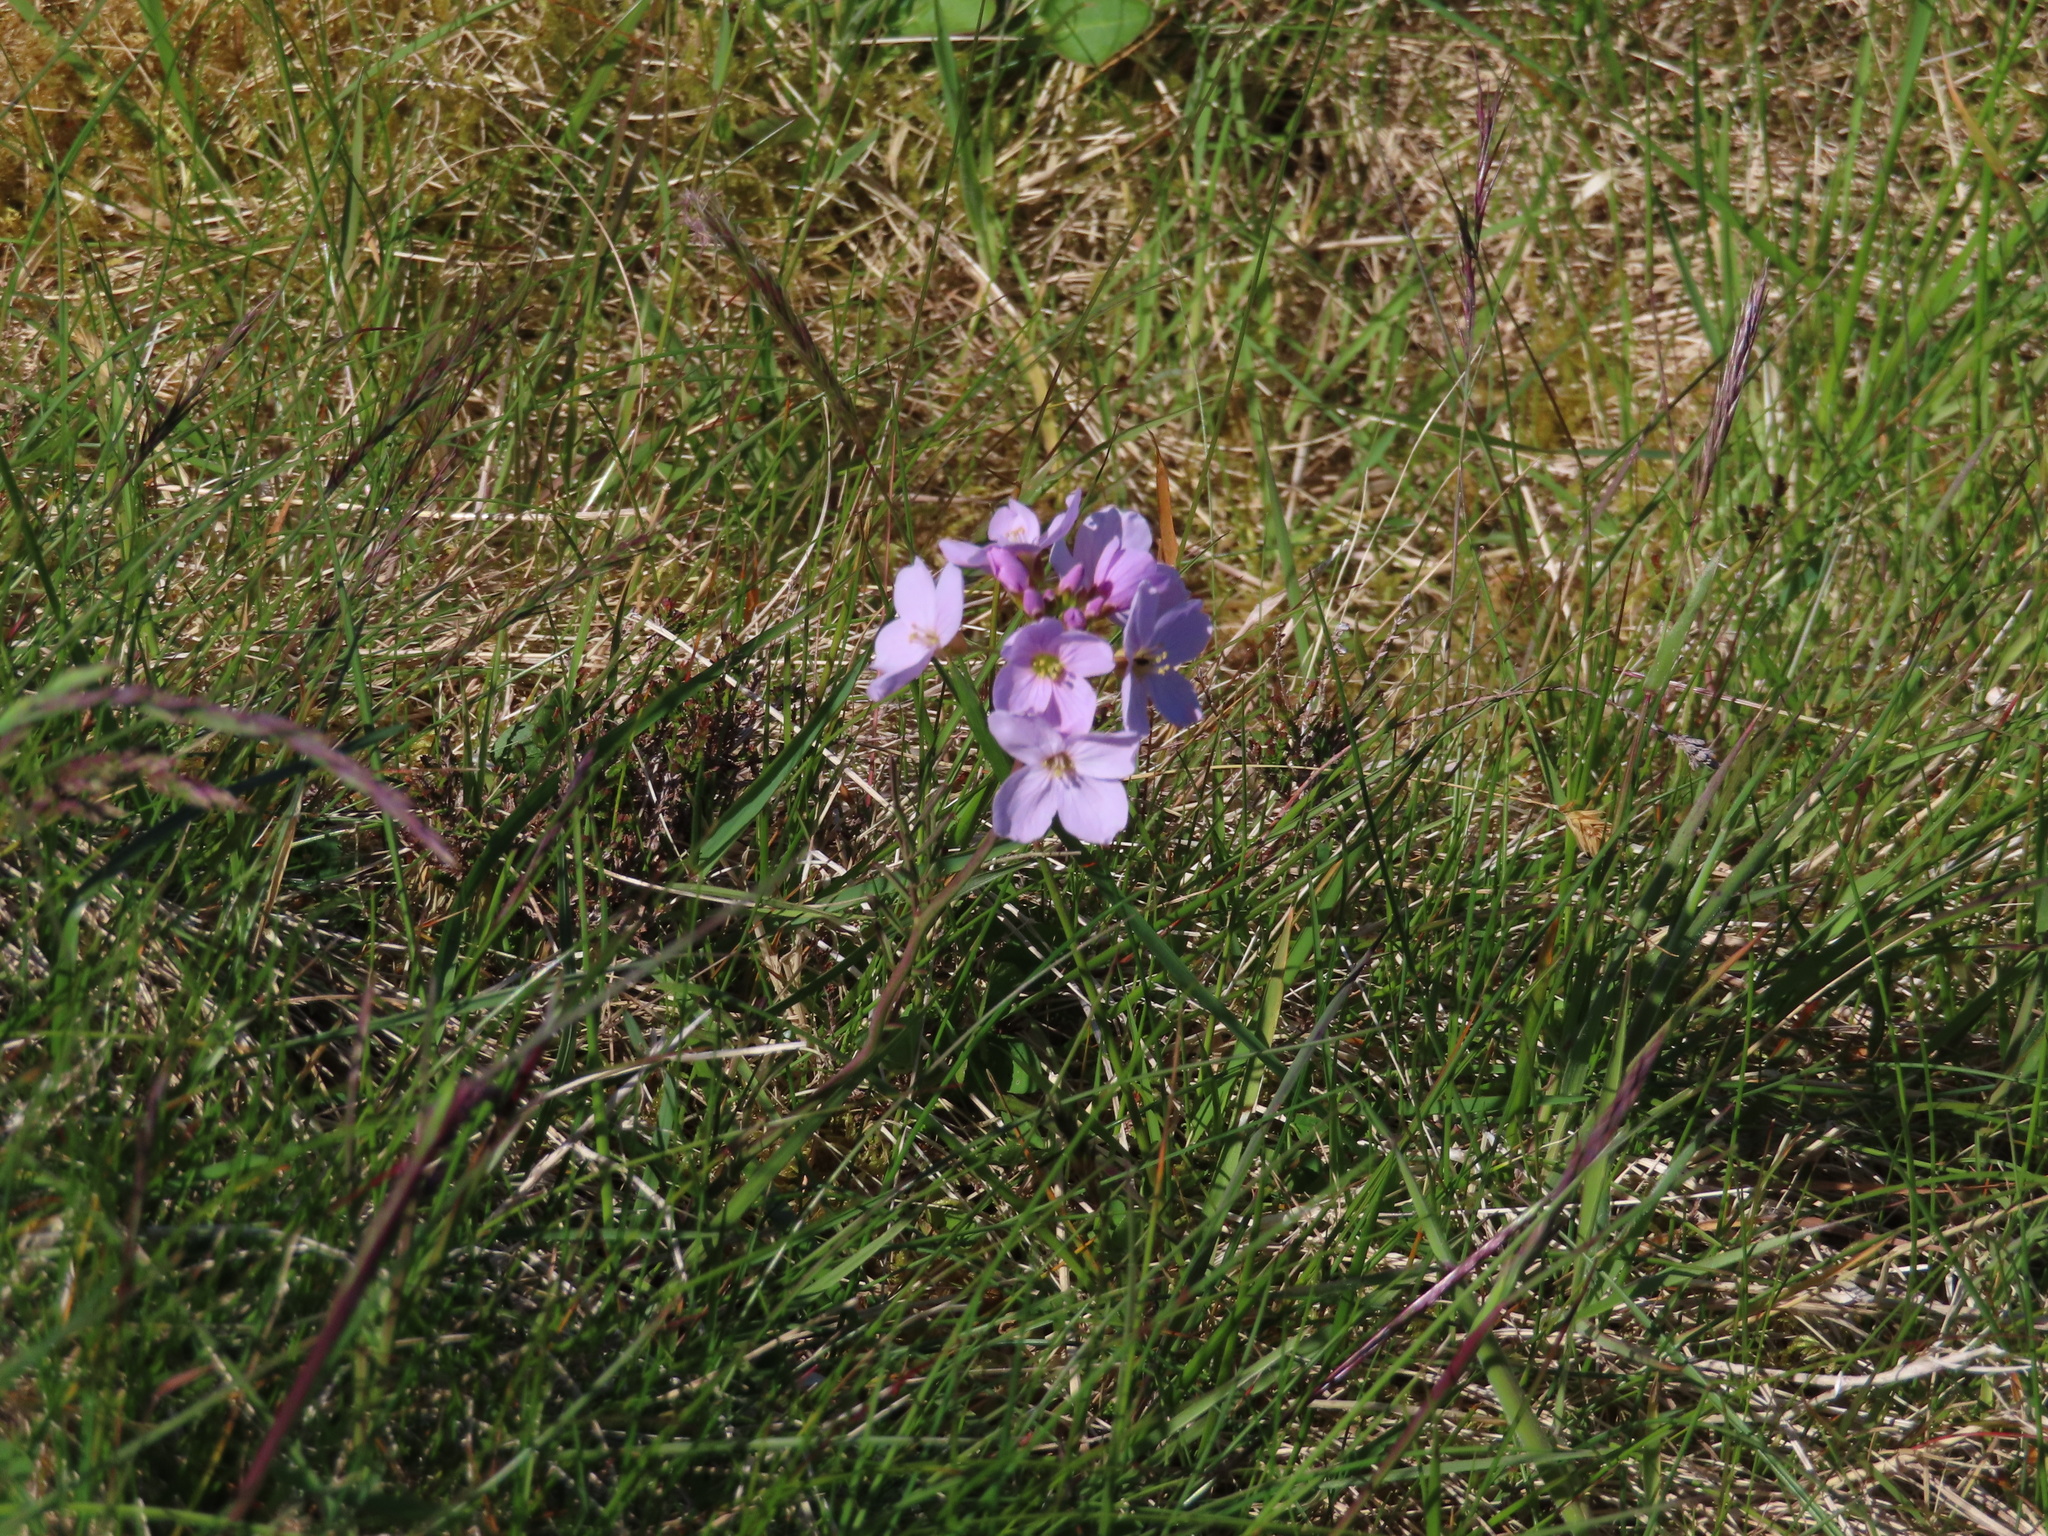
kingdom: Plantae
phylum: Tracheophyta
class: Magnoliopsida
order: Brassicales
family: Brassicaceae
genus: Cardamine
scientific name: Cardamine pratensis
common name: Cuckoo flower
